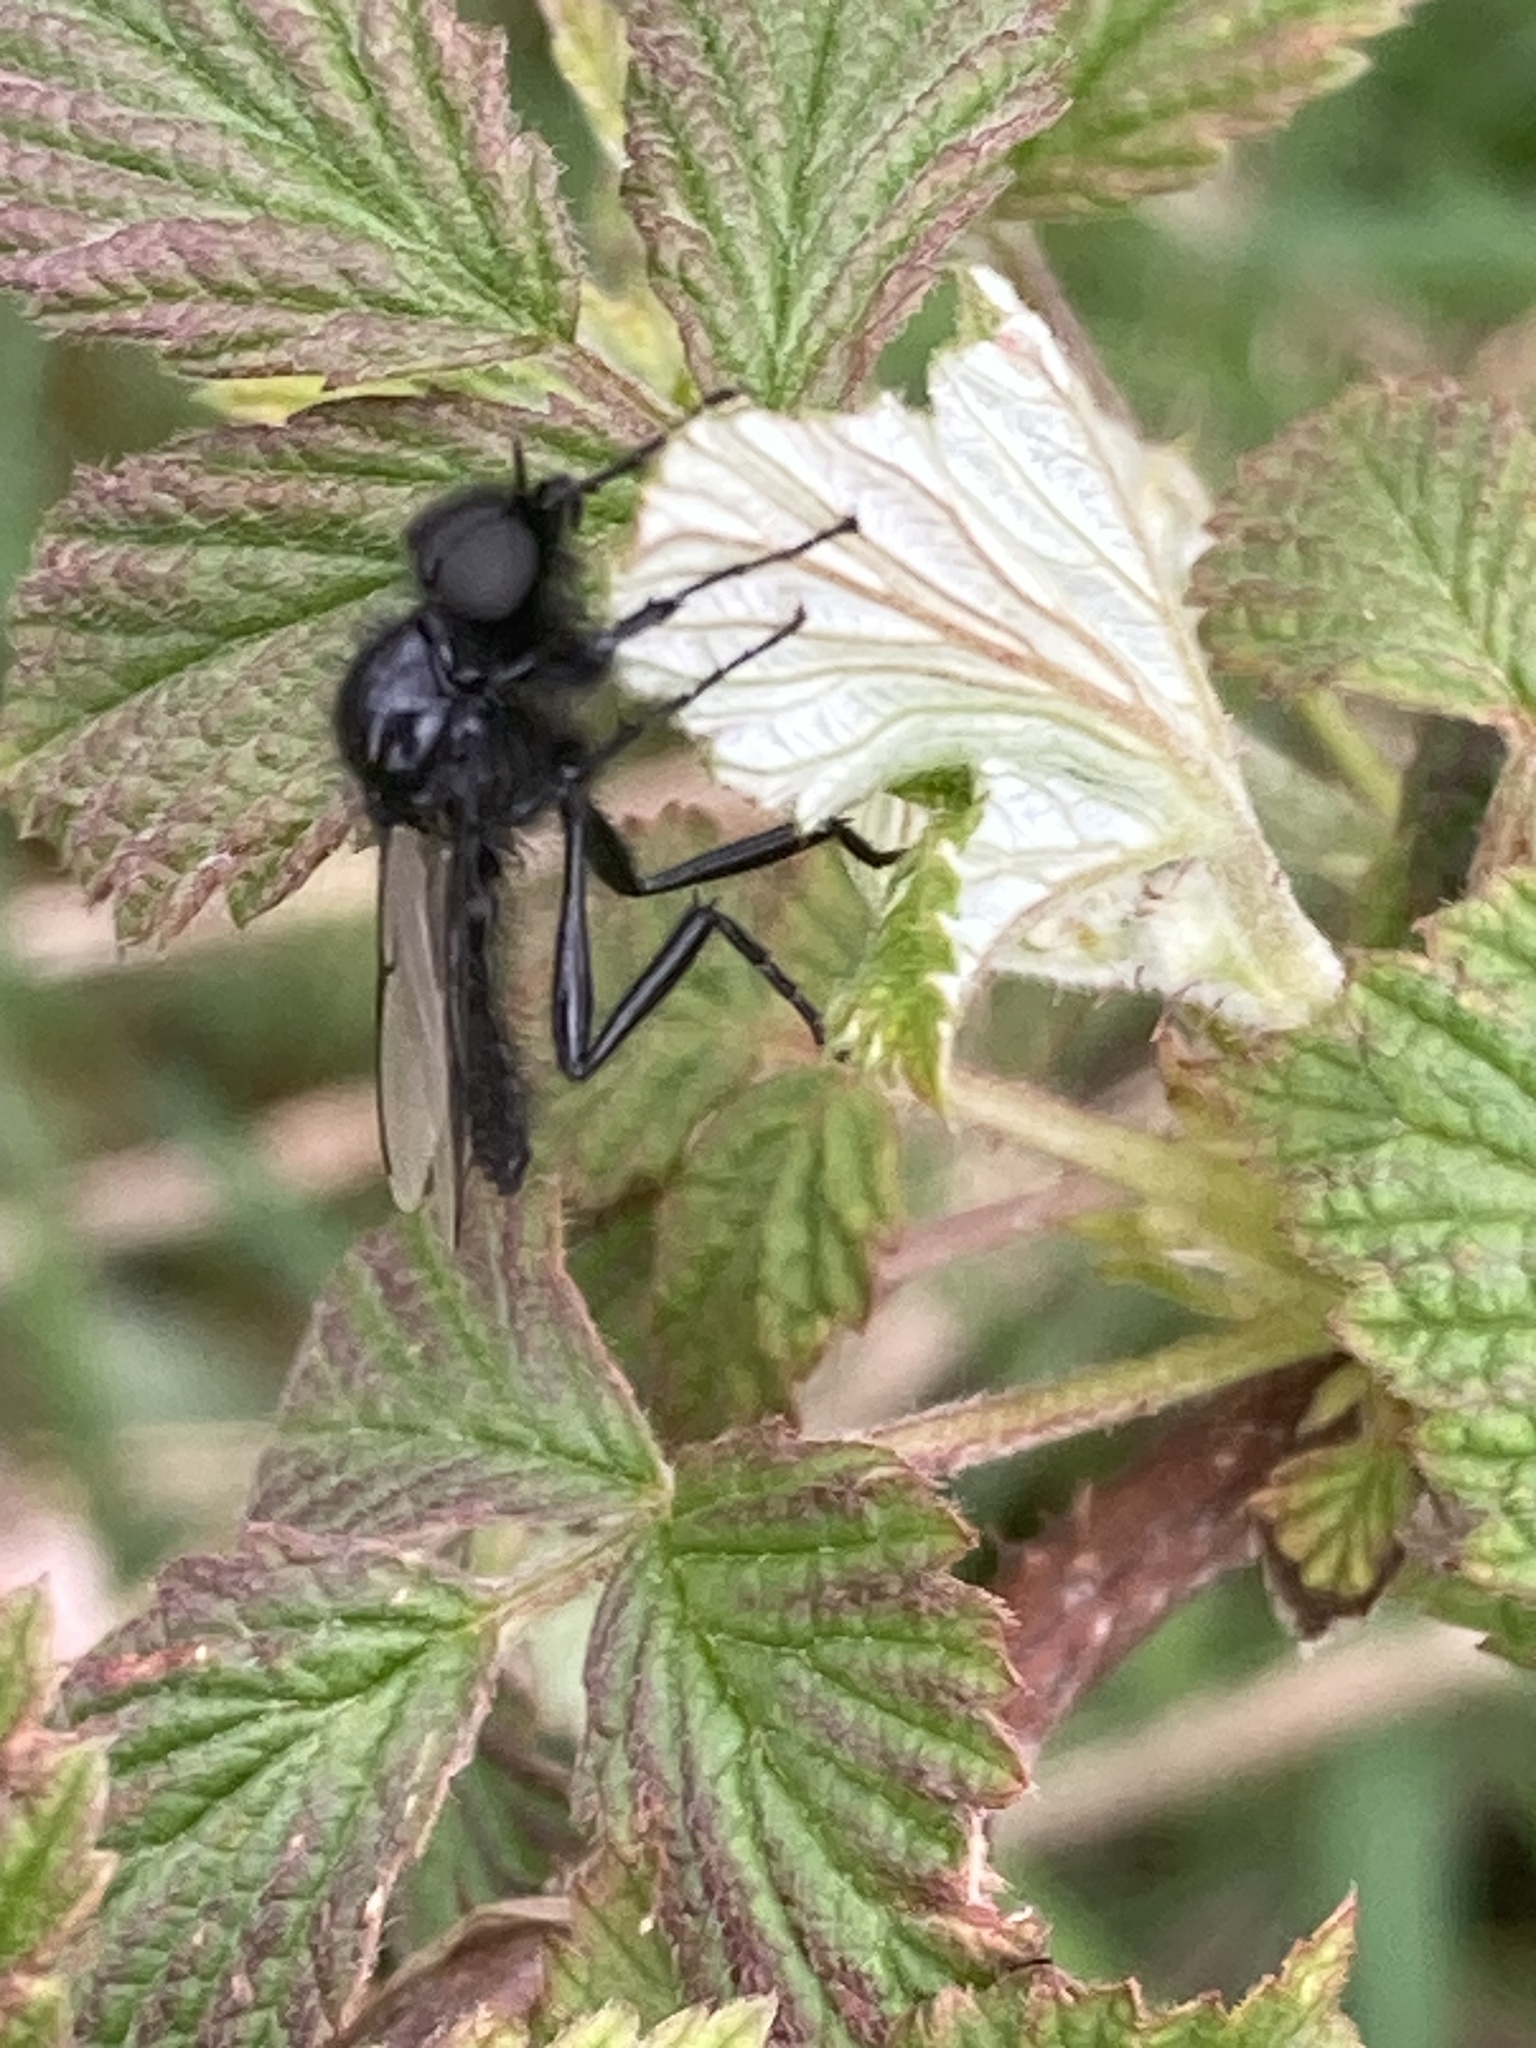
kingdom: Animalia
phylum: Arthropoda
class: Insecta
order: Diptera
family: Bibionidae
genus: Bibio
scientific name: Bibio marci
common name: St marks fly
